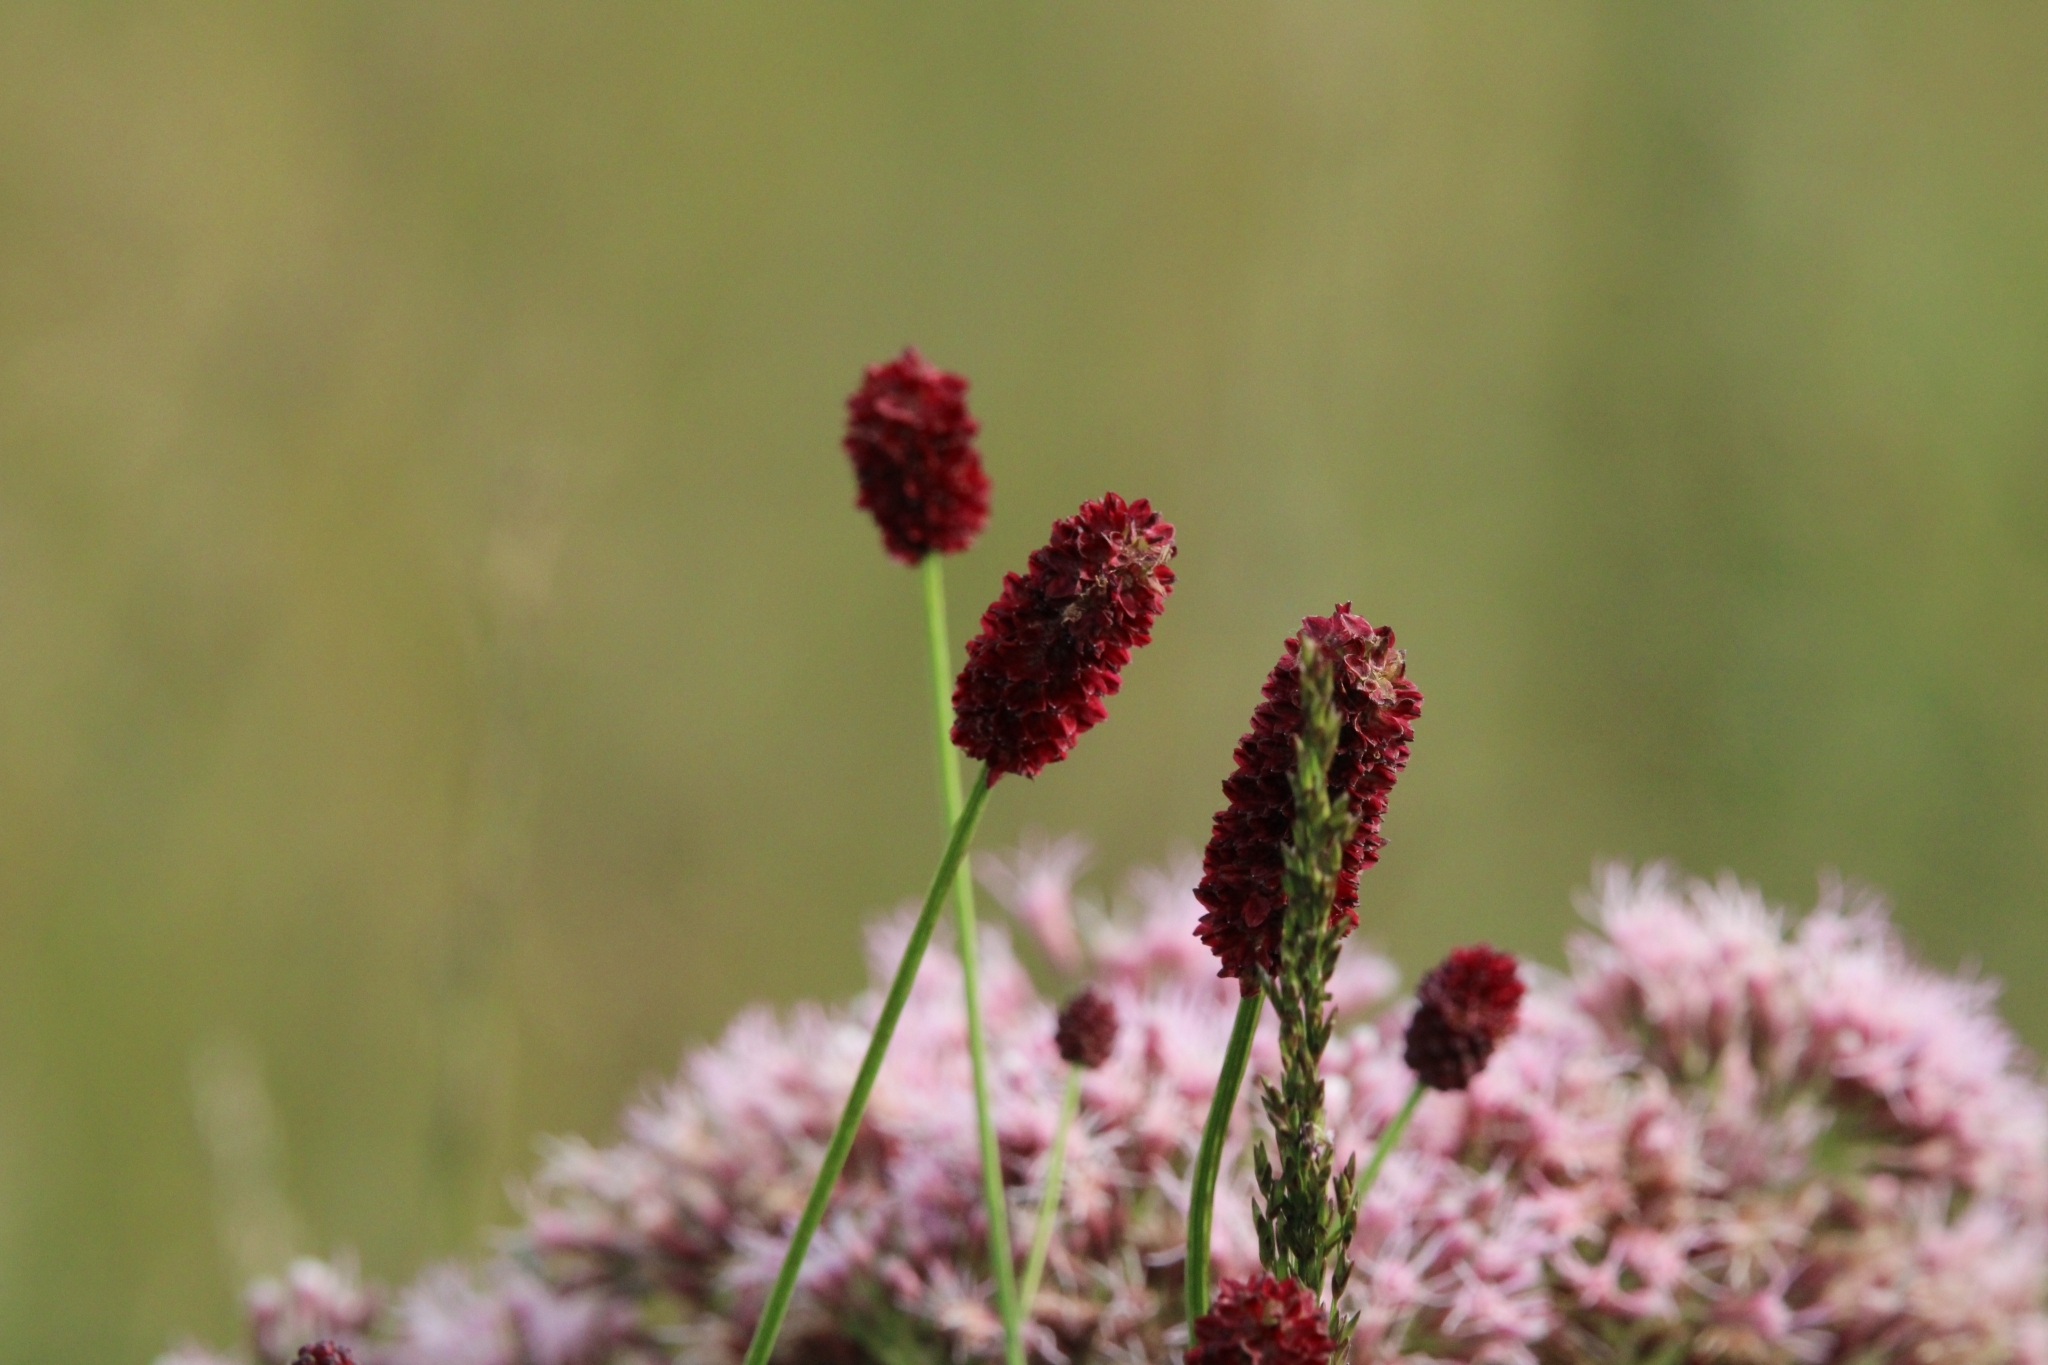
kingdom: Plantae
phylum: Tracheophyta
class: Magnoliopsida
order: Rosales
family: Rosaceae
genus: Sanguisorba
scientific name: Sanguisorba officinalis
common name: Great burnet
